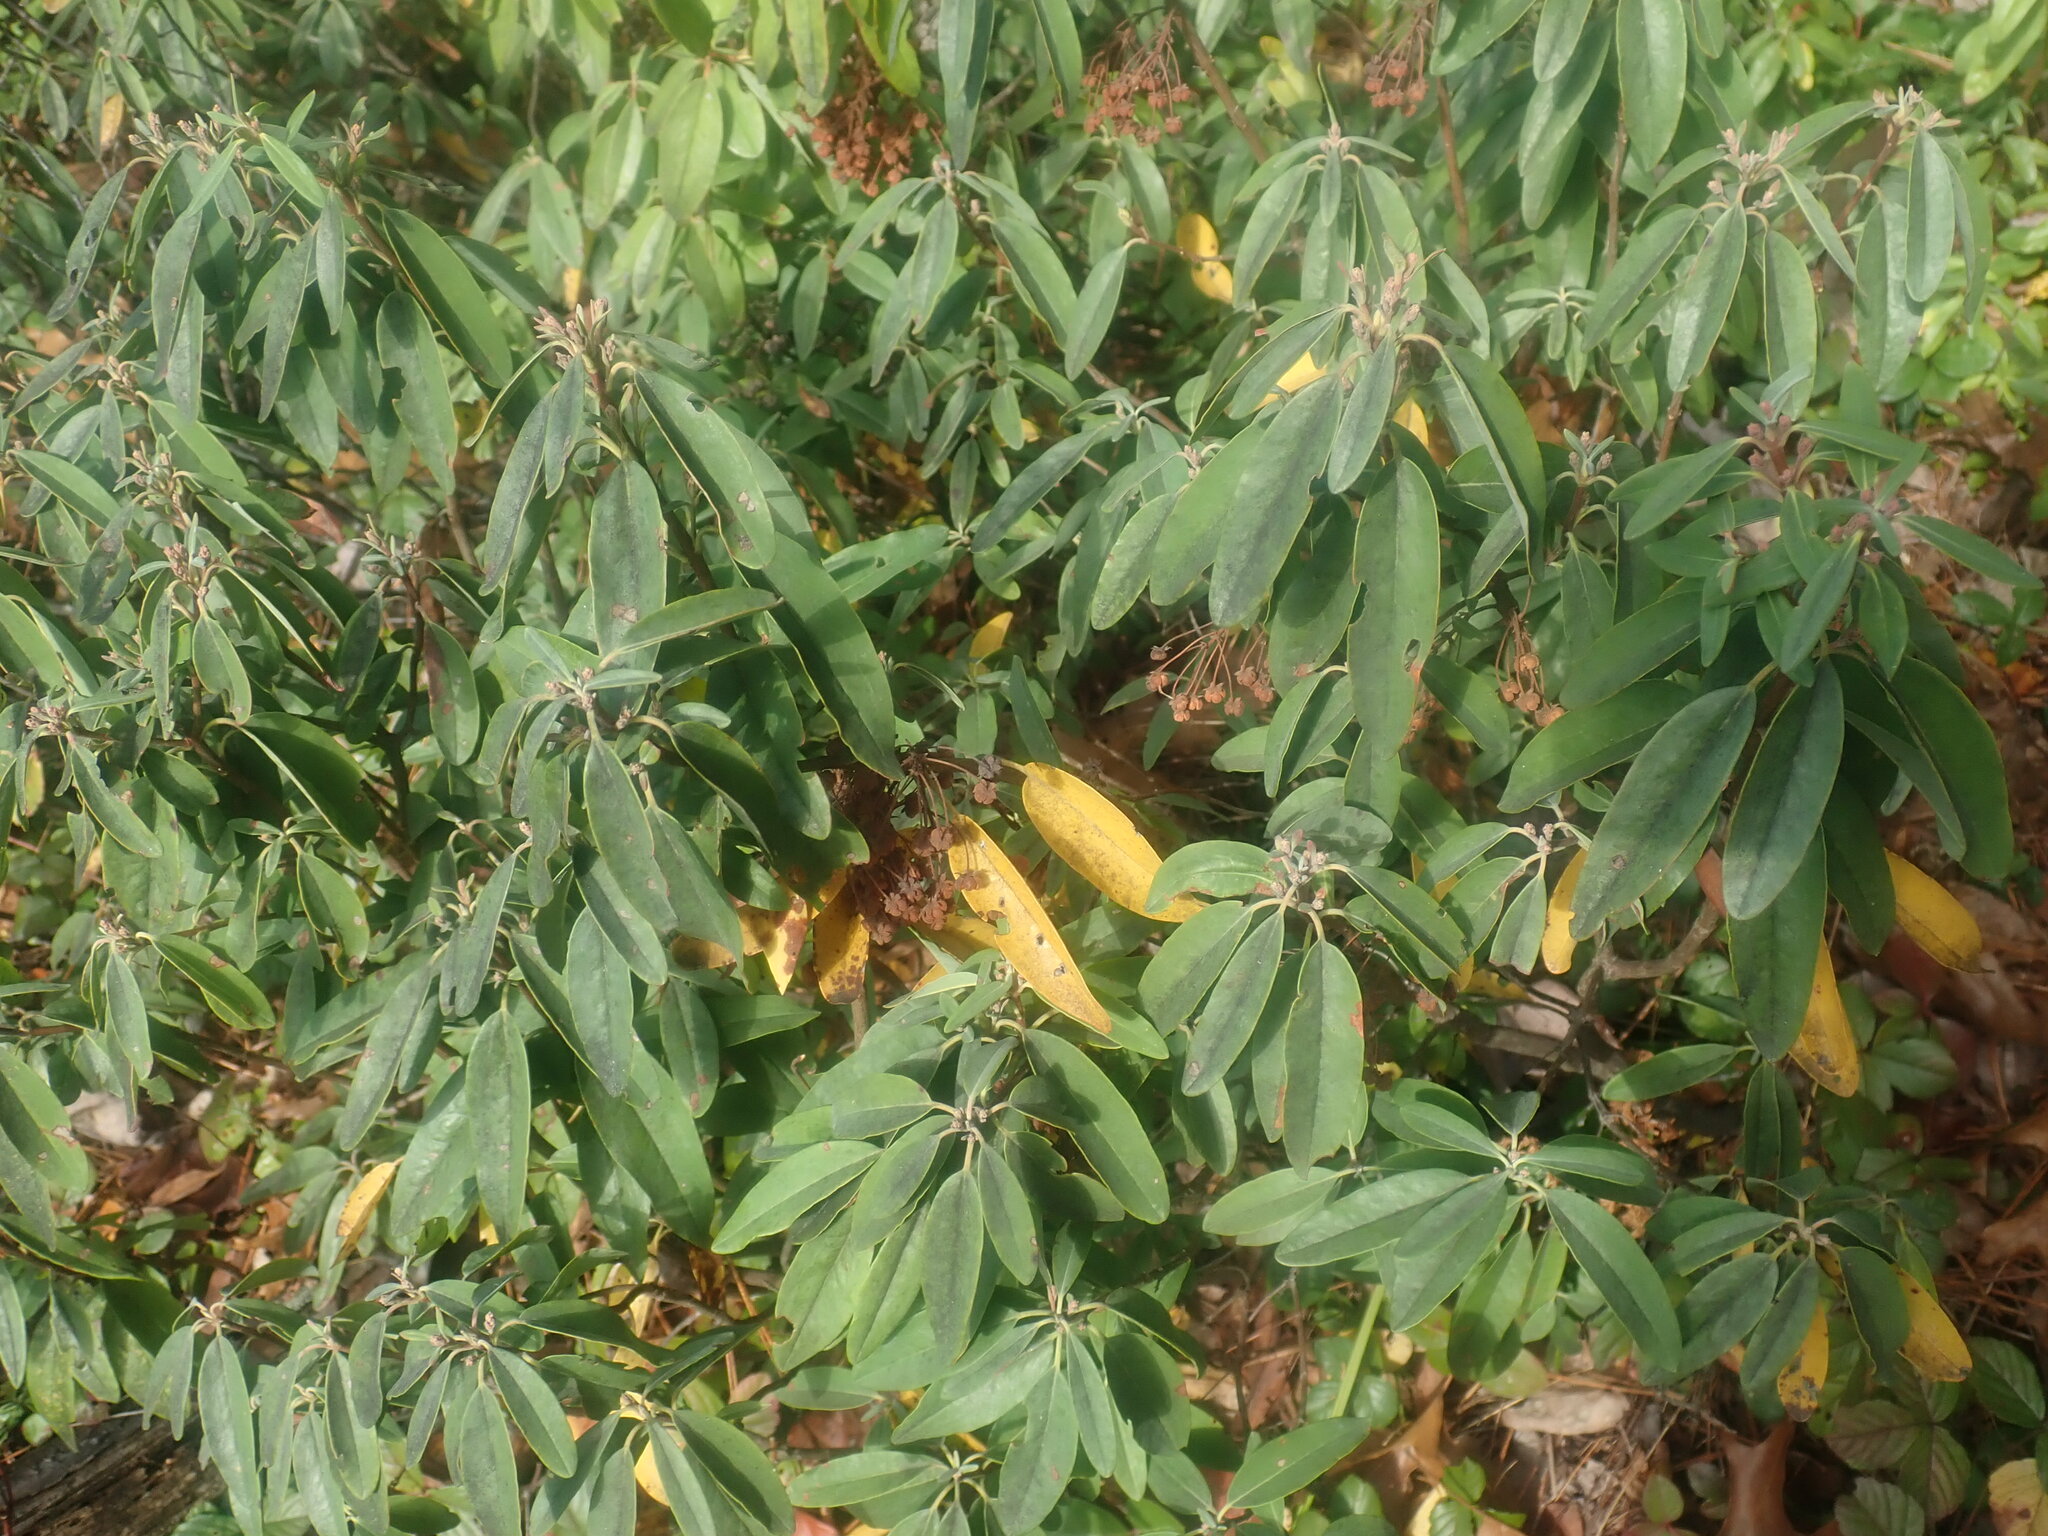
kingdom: Plantae
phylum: Tracheophyta
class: Magnoliopsida
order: Ericales
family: Ericaceae
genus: Kalmia
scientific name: Kalmia angustifolia
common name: Sheep-laurel
